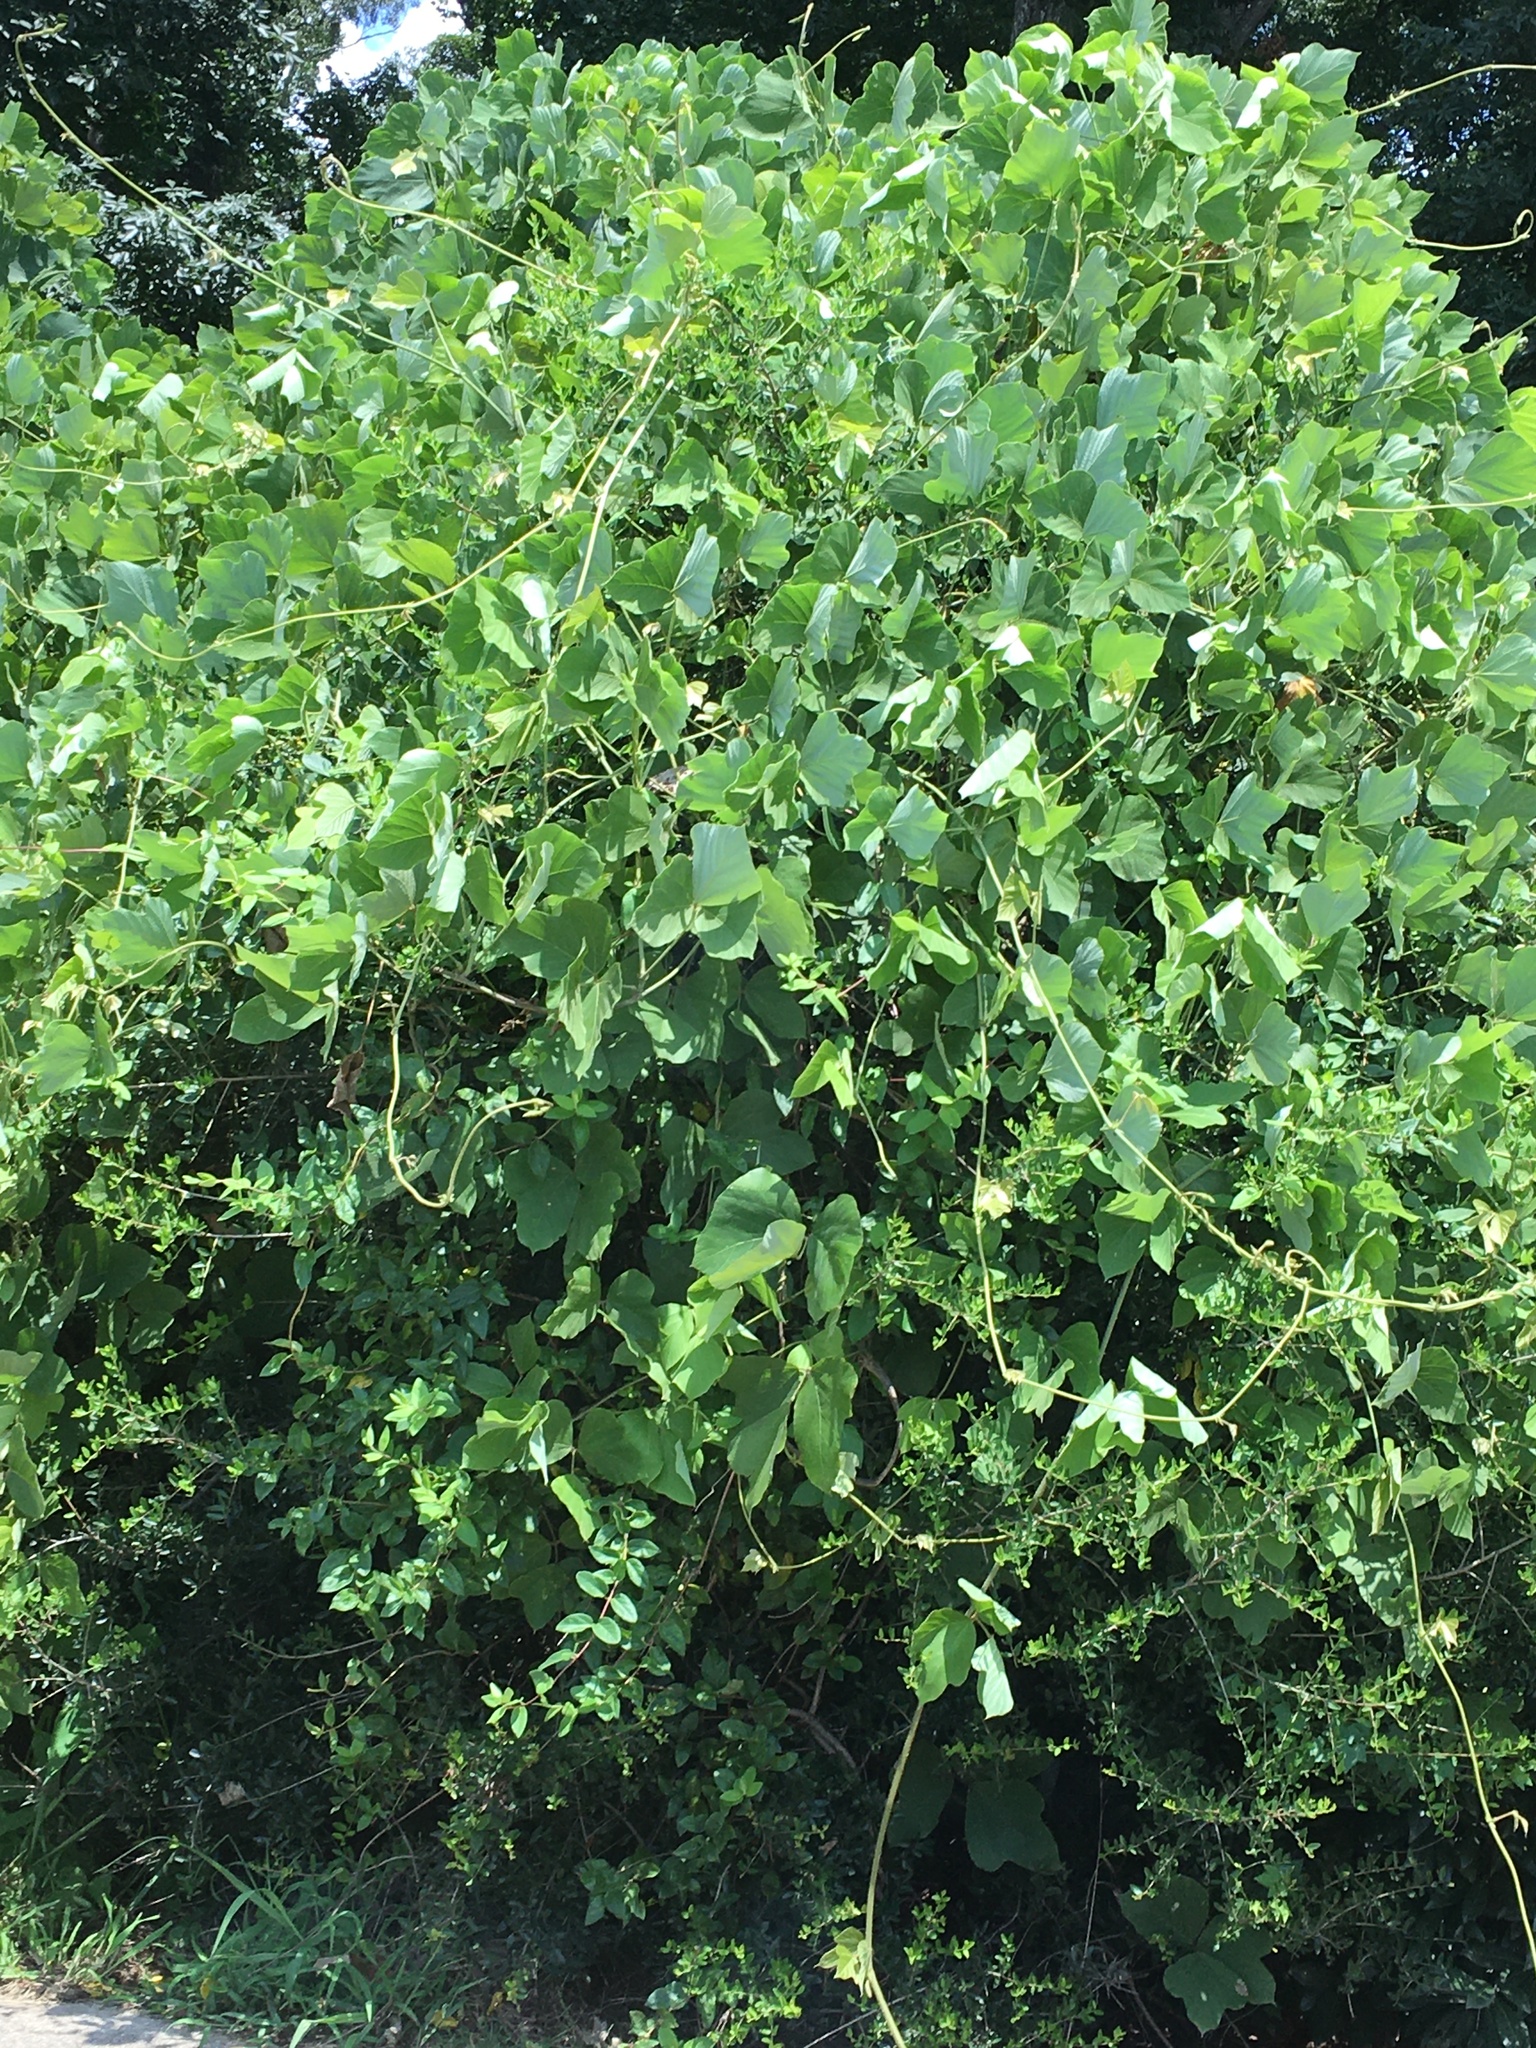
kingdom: Plantae
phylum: Tracheophyta
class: Magnoliopsida
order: Fabales
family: Fabaceae
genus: Pueraria
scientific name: Pueraria montana
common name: Kudzu
